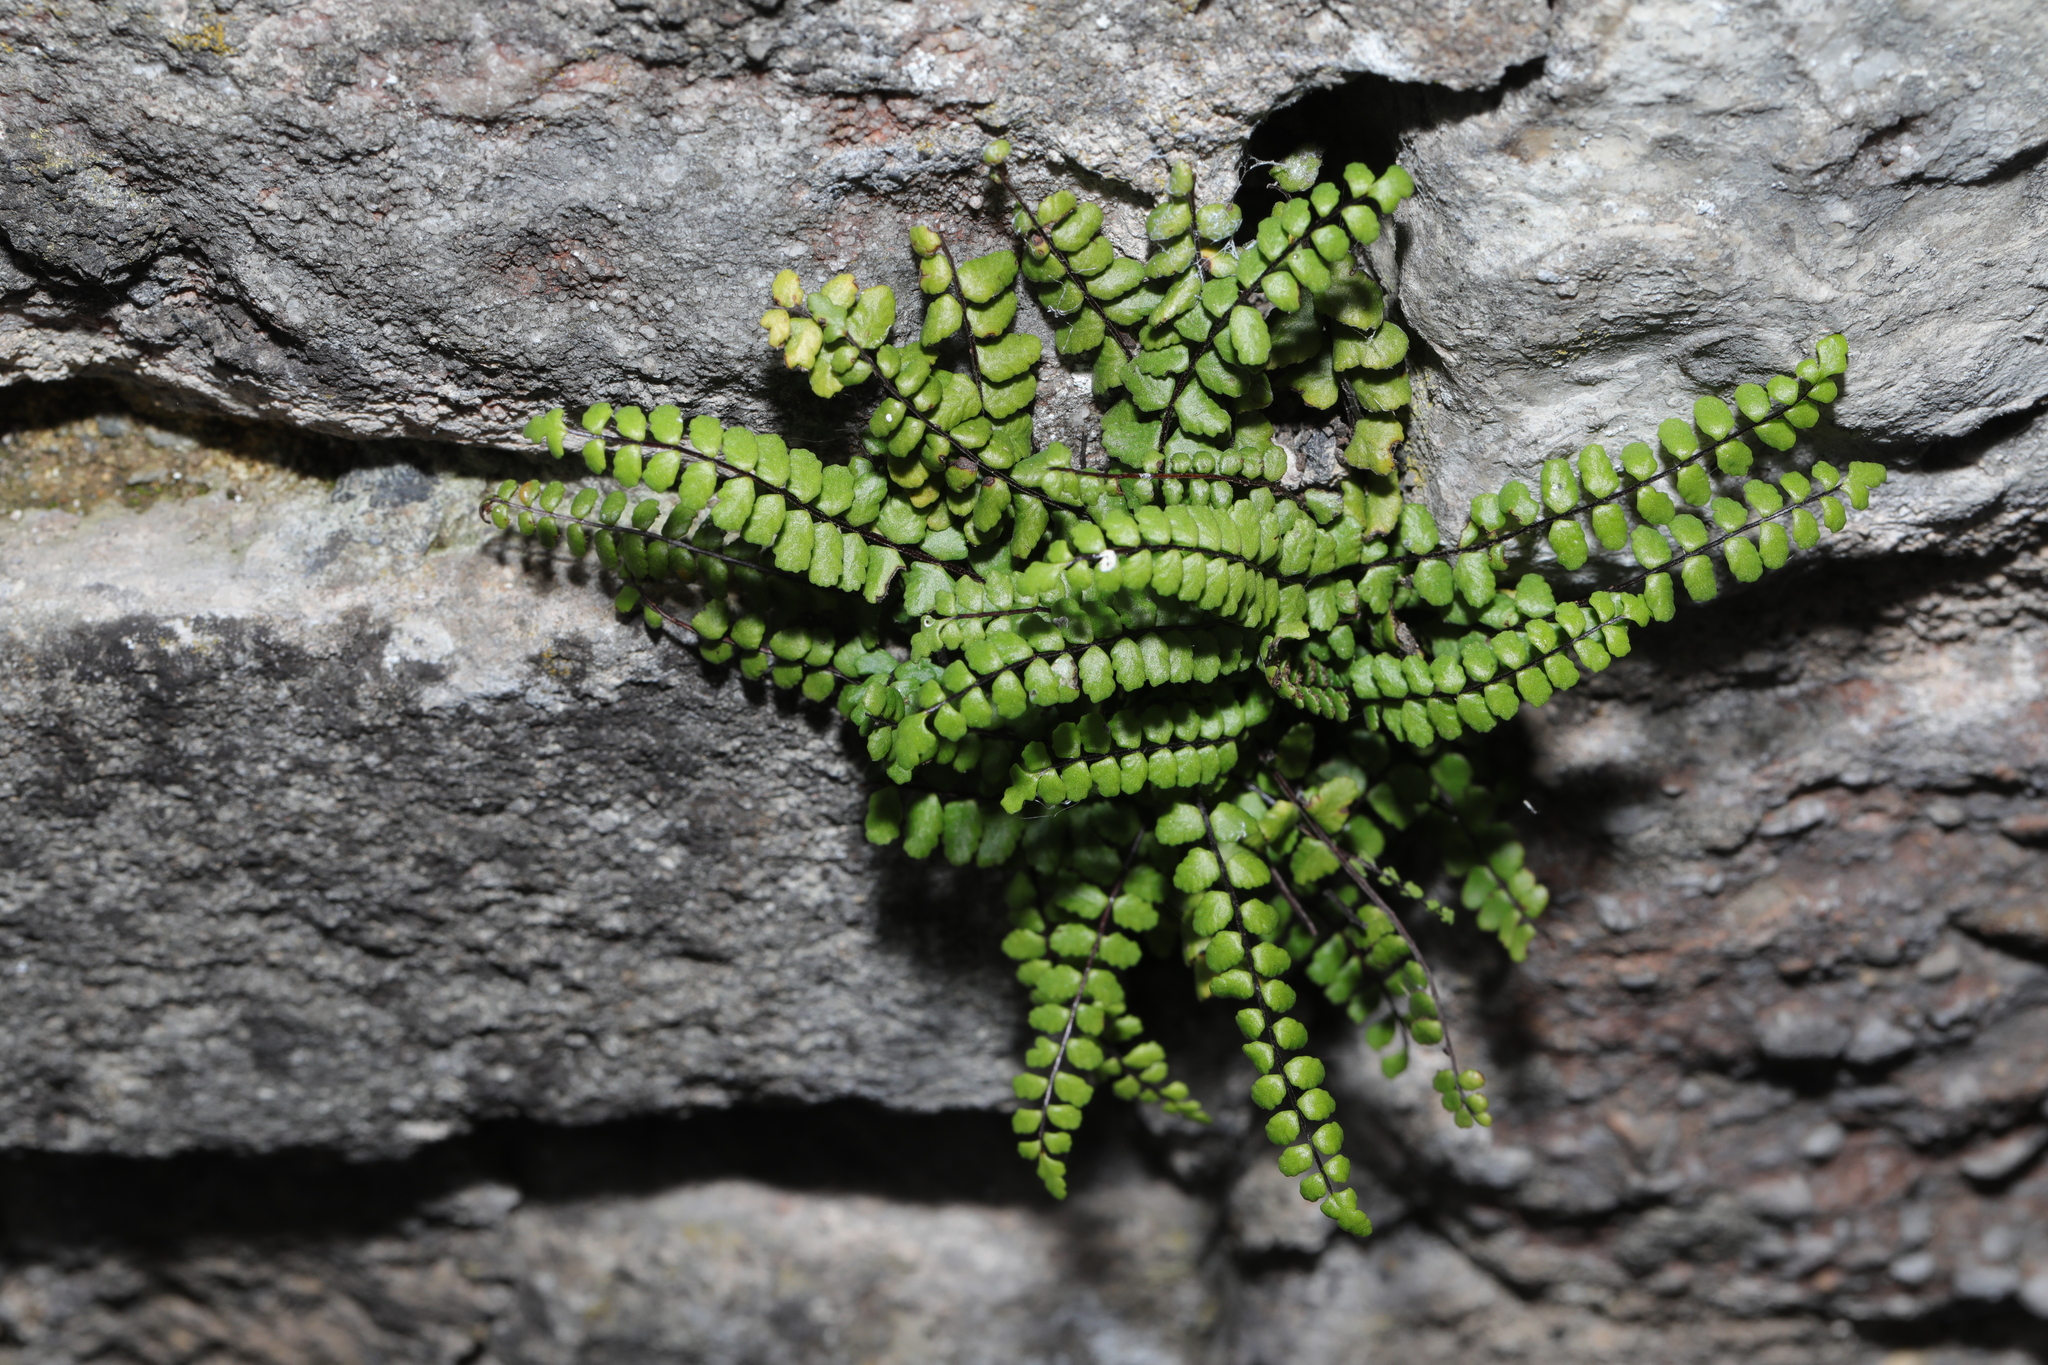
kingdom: Plantae
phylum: Tracheophyta
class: Polypodiopsida
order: Polypodiales
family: Aspleniaceae
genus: Asplenium
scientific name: Asplenium trichomanes
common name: Maidenhair spleenwort
